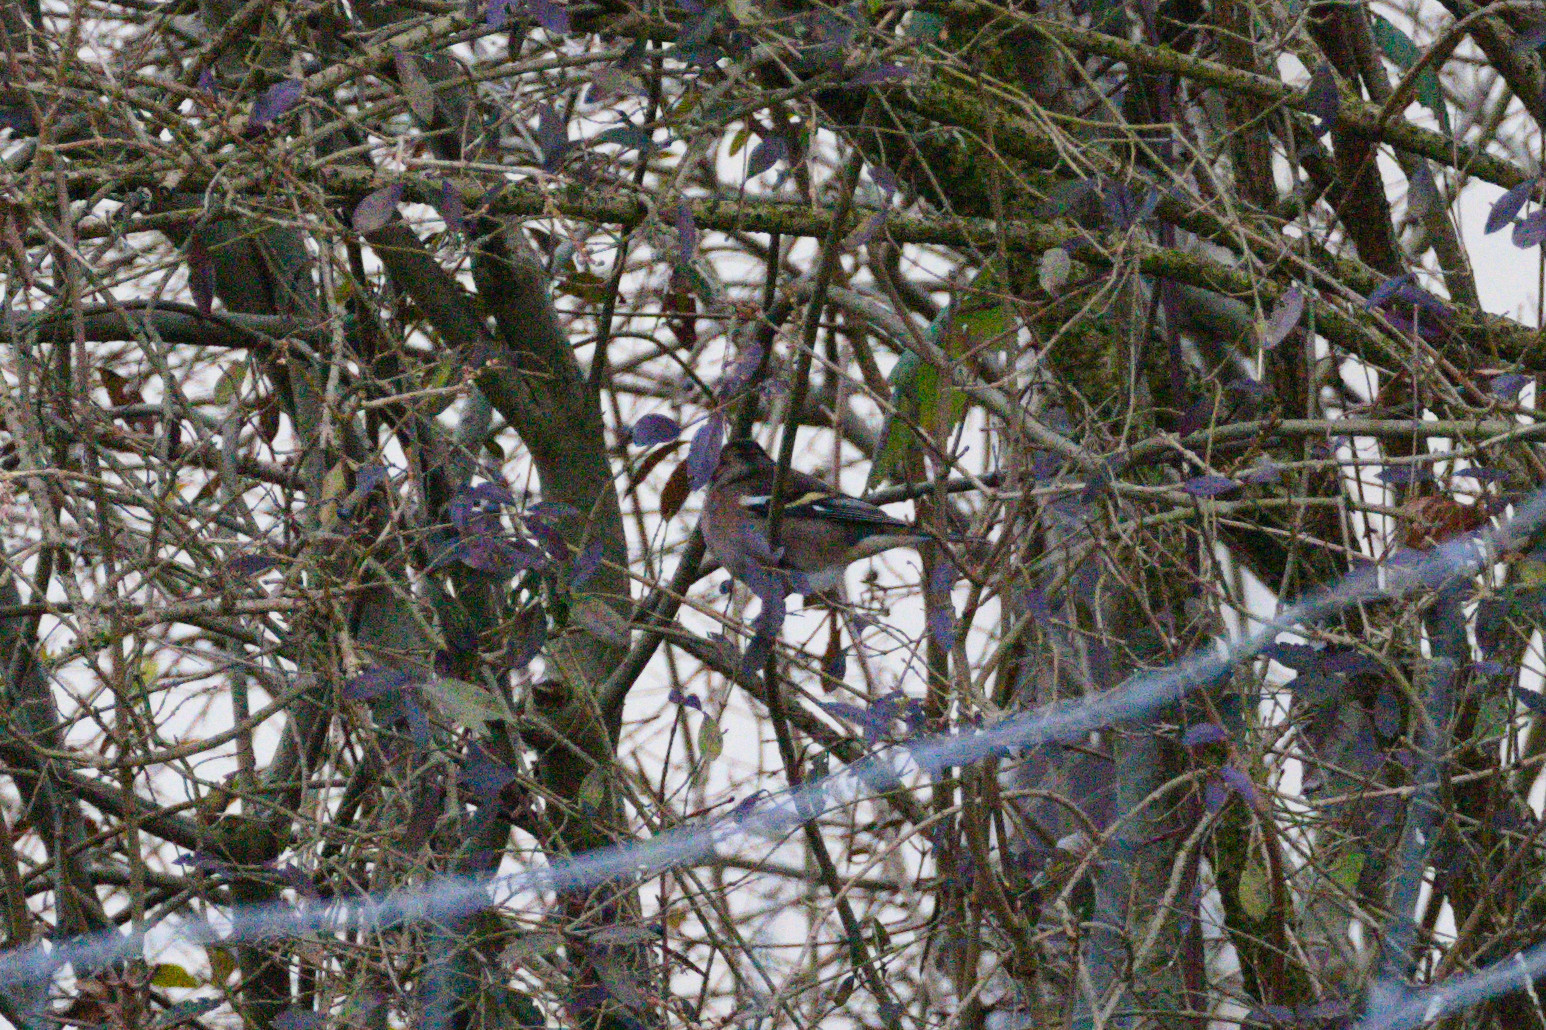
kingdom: Animalia
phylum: Chordata
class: Aves
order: Passeriformes
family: Fringillidae
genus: Fringilla
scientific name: Fringilla coelebs
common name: Common chaffinch
